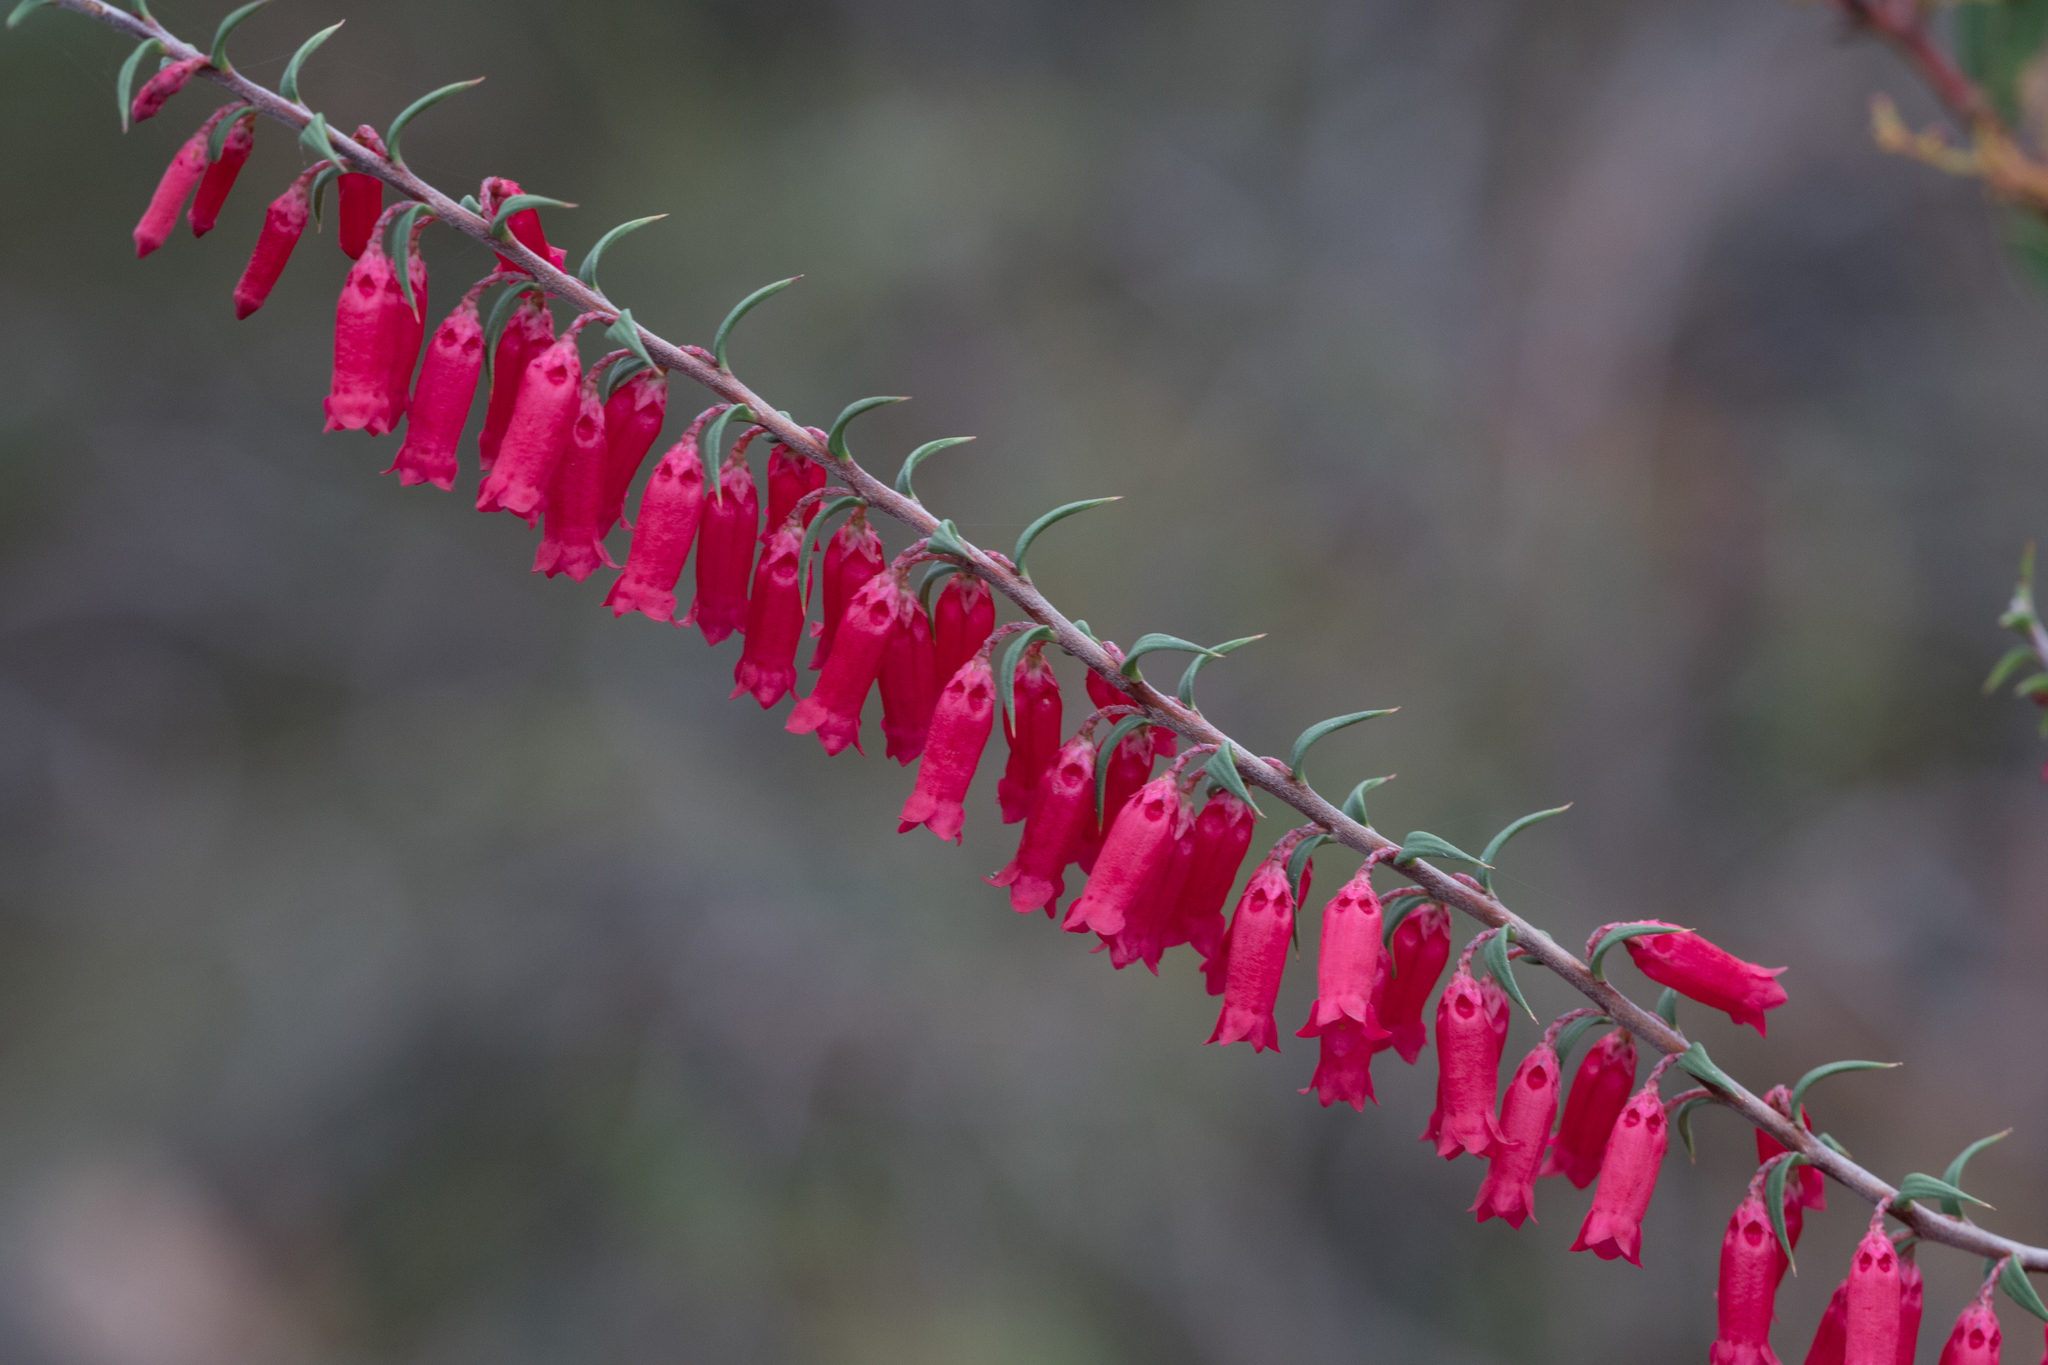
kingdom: Plantae
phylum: Tracheophyta
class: Magnoliopsida
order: Ericales
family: Ericaceae
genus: Epacris
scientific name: Epacris impressa
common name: Common-heath
